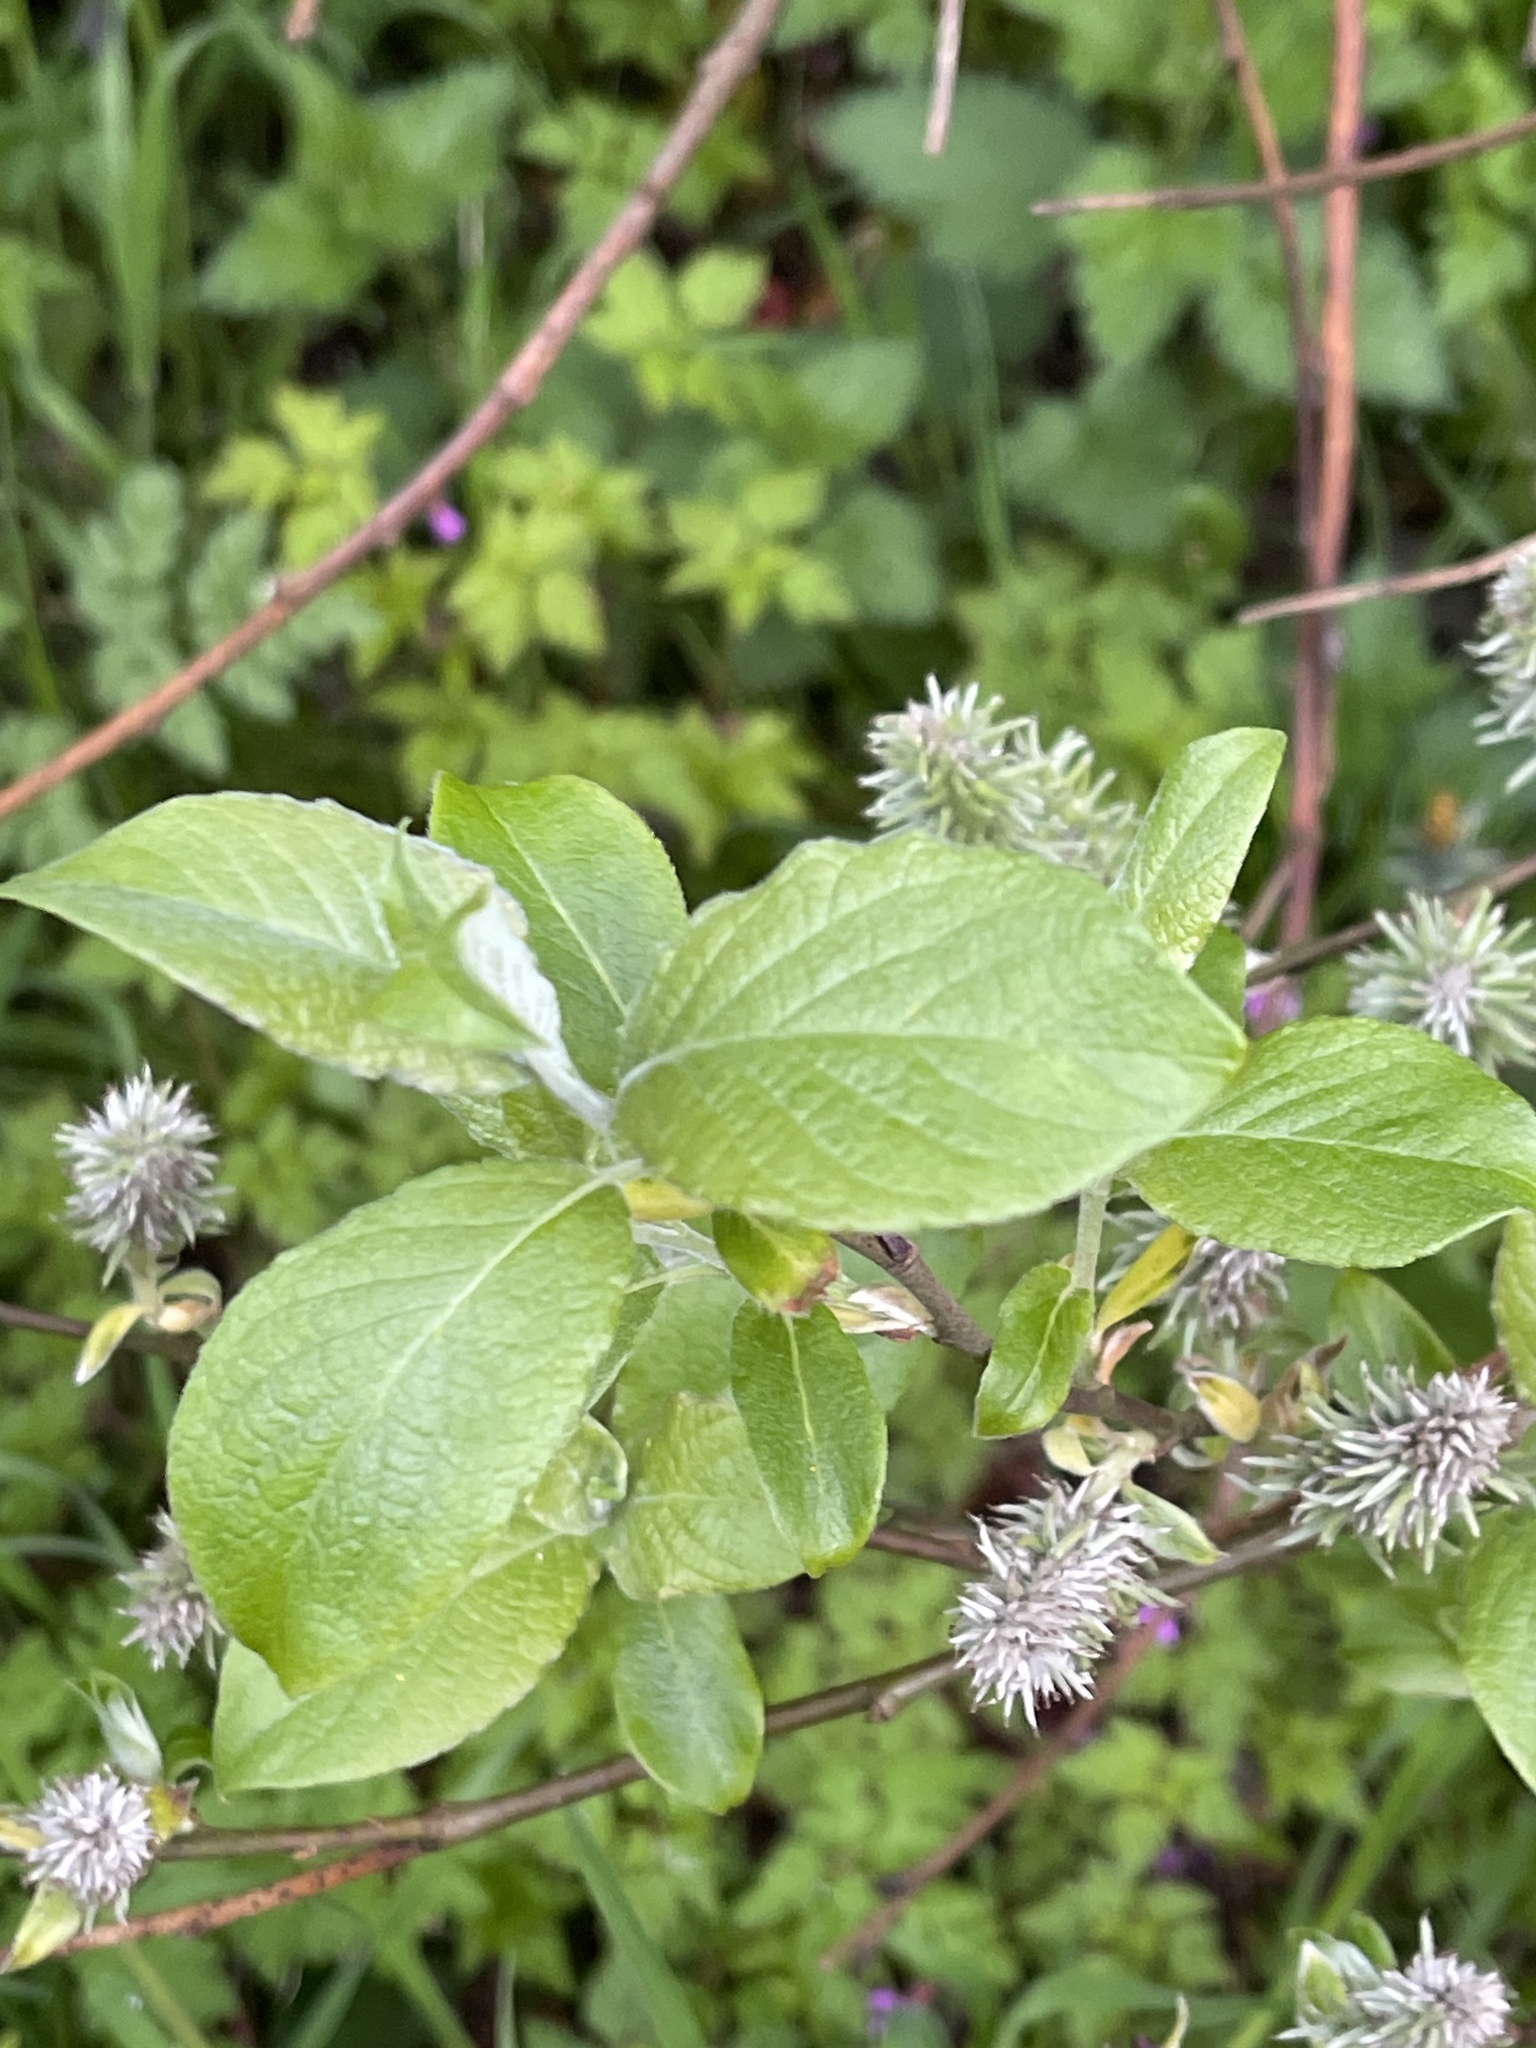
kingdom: Plantae
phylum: Tracheophyta
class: Magnoliopsida
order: Malpighiales
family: Salicaceae
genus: Salix
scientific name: Salix caprea
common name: Goat willow
